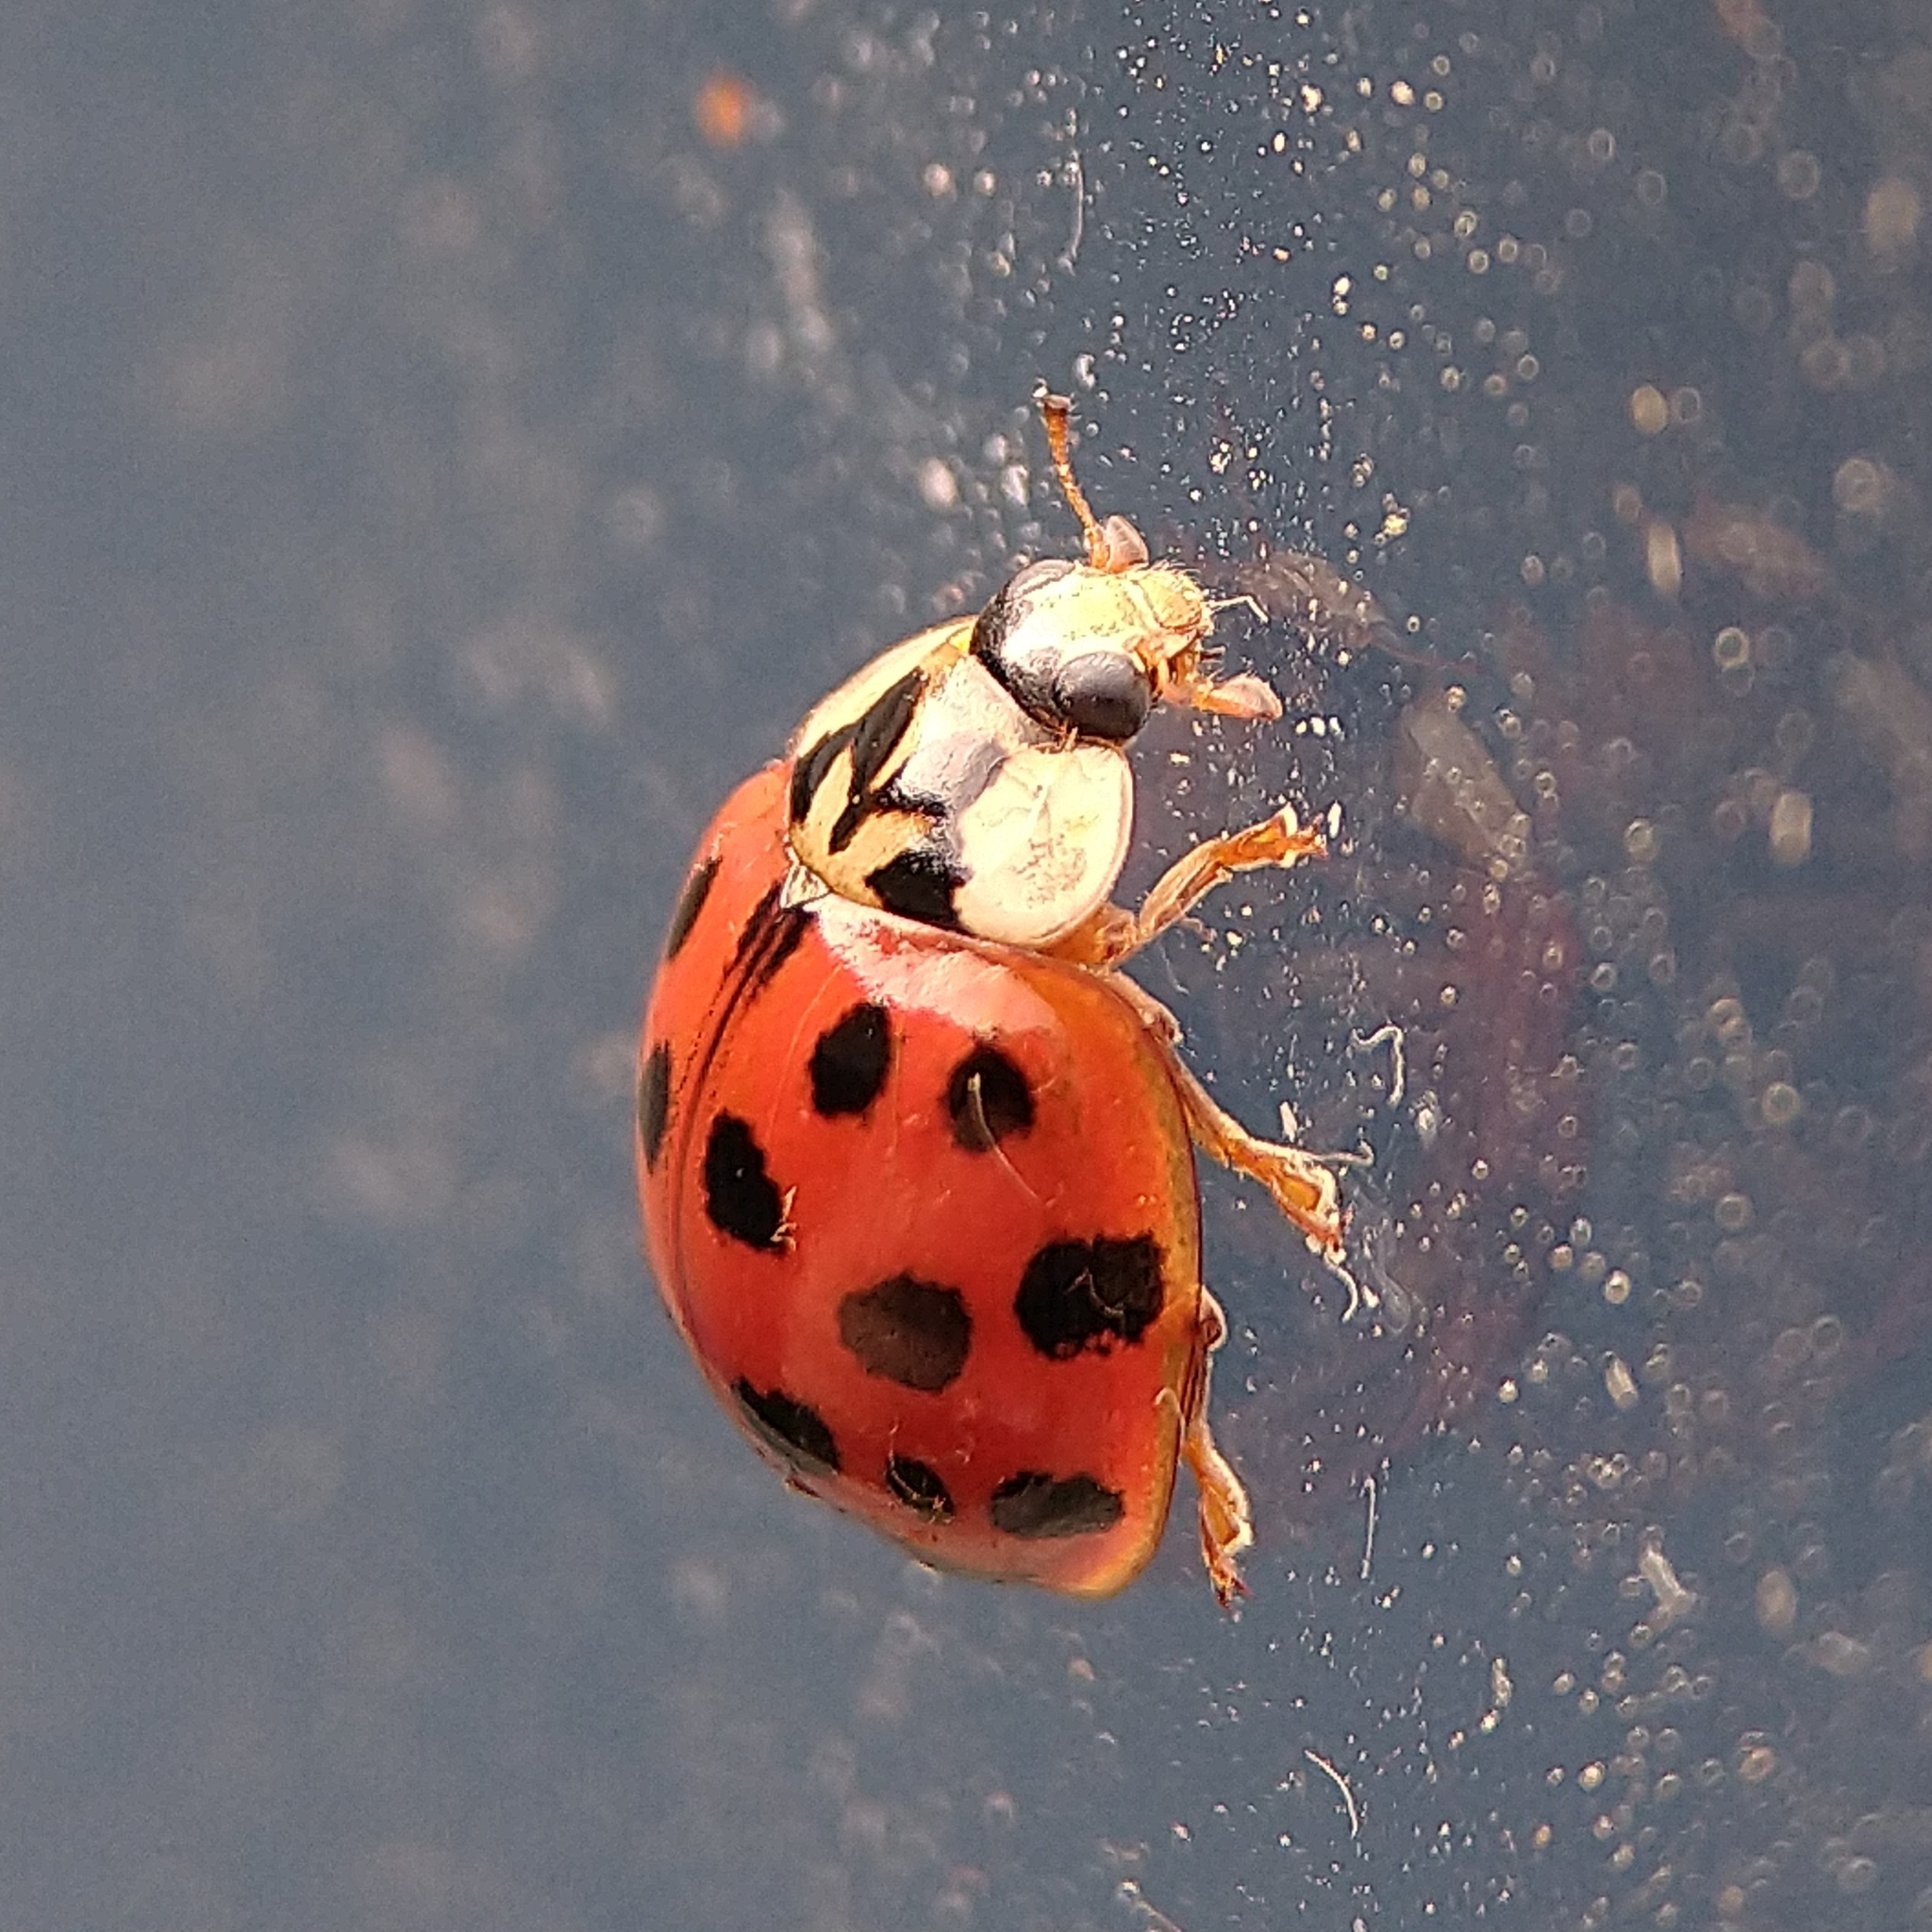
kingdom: Animalia
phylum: Arthropoda
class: Insecta
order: Coleoptera
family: Coccinellidae
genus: Harmonia
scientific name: Harmonia axyridis
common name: Harlequin ladybird
